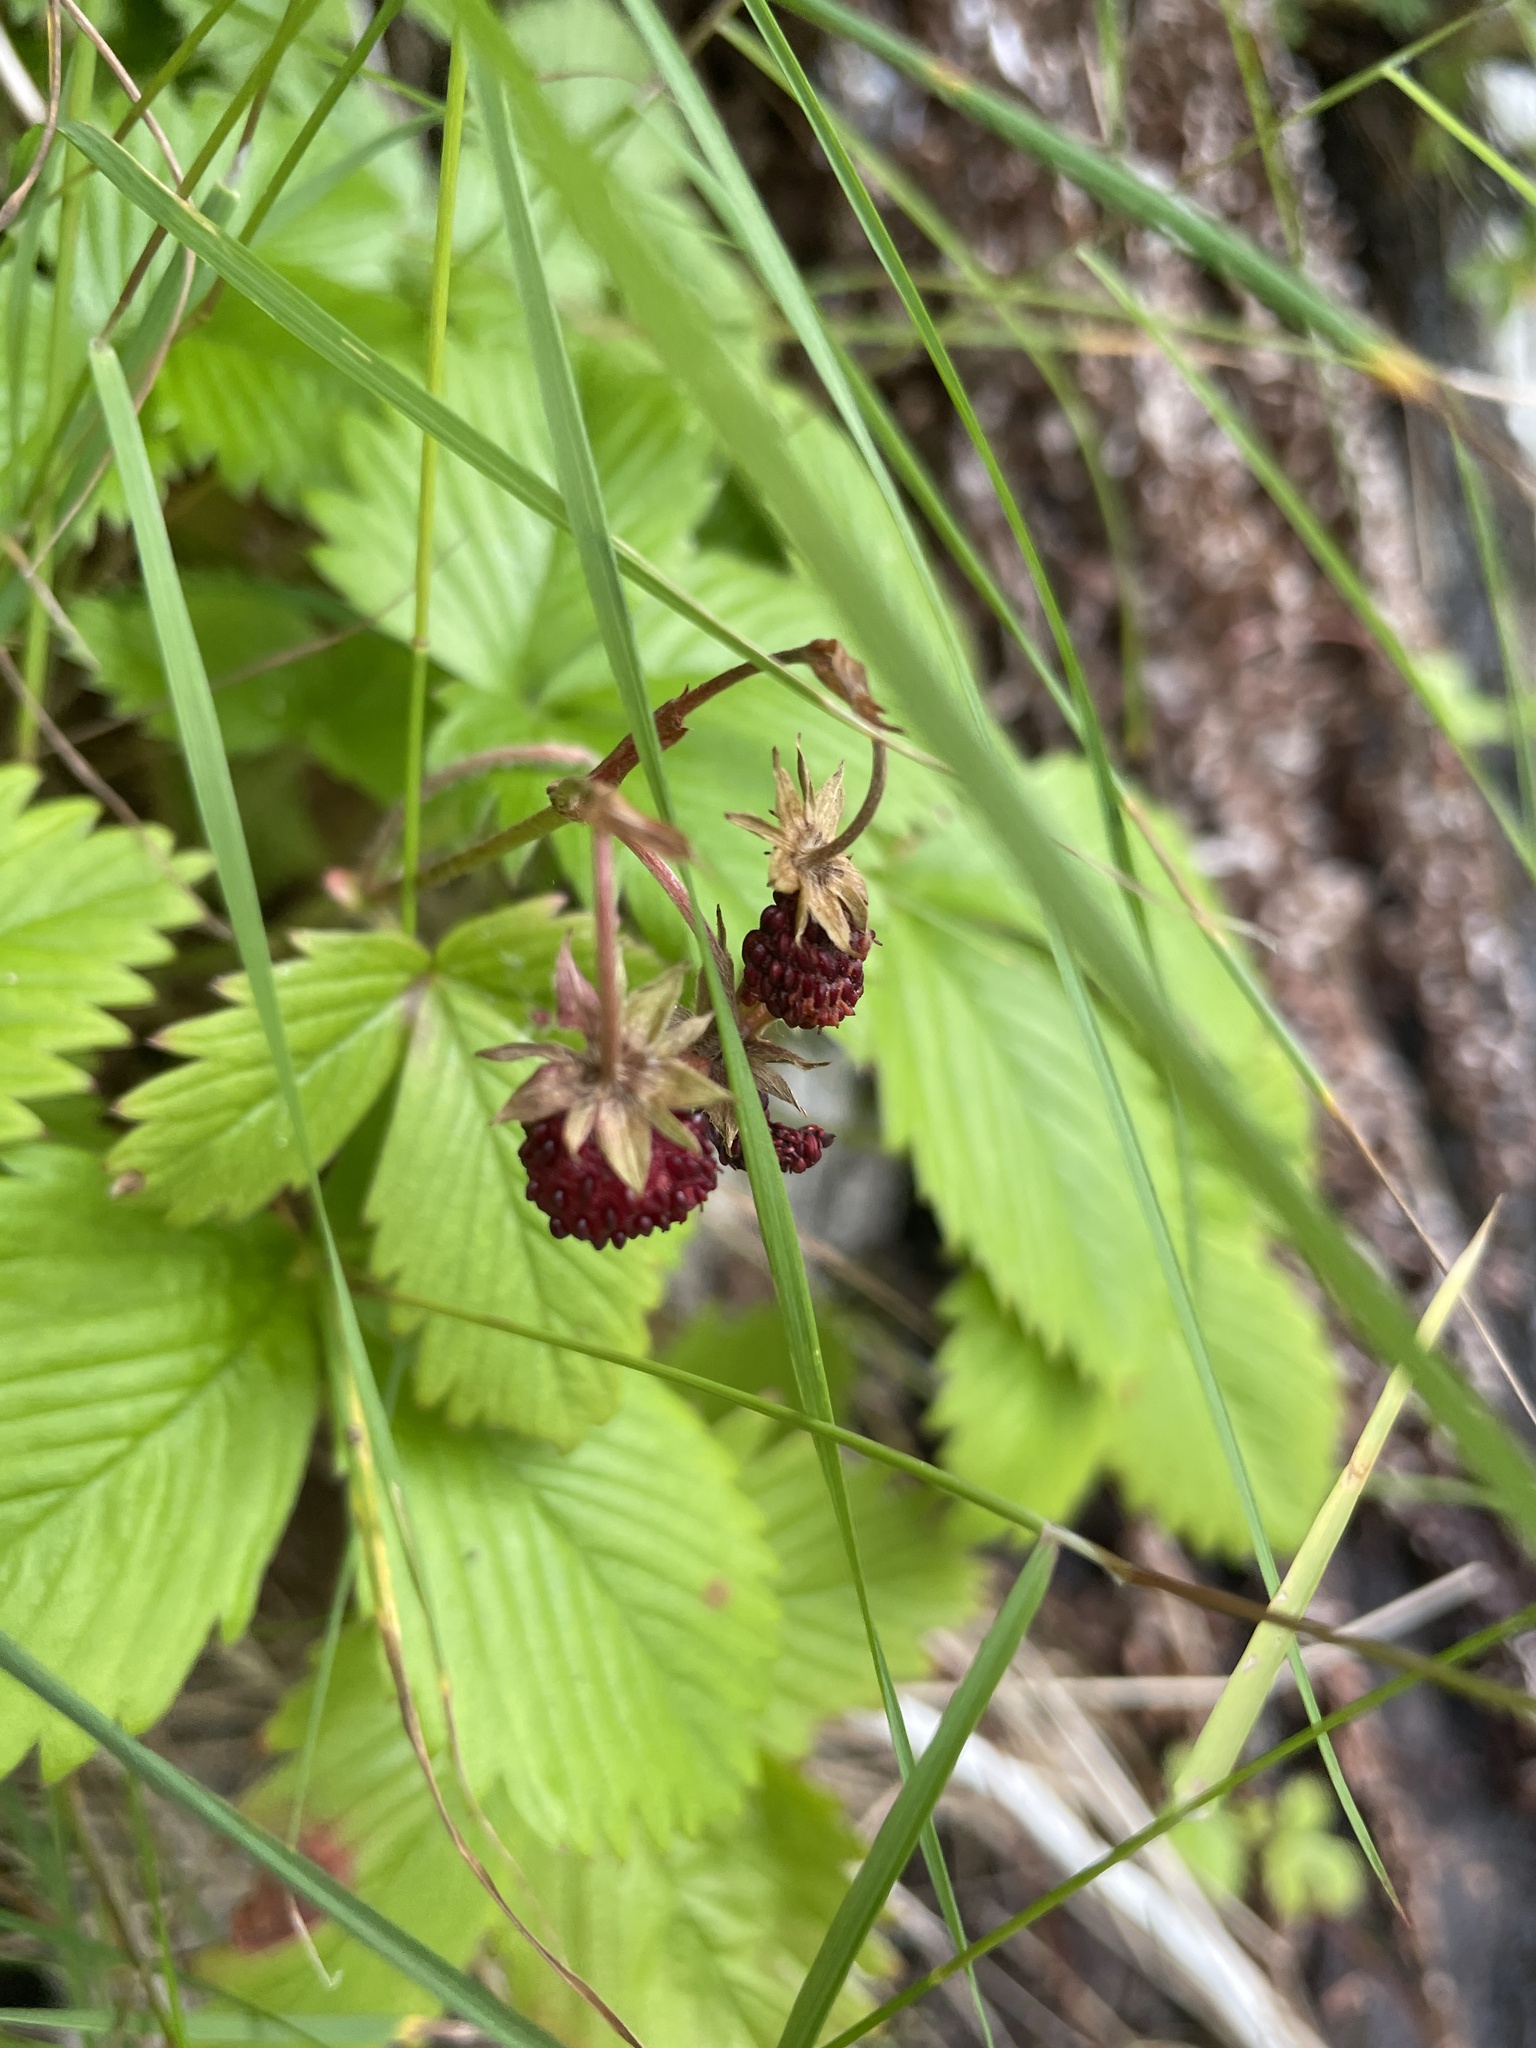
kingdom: Plantae
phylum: Tracheophyta
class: Magnoliopsida
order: Rosales
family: Rosaceae
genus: Fragaria
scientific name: Fragaria vesca
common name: Wild strawberry
